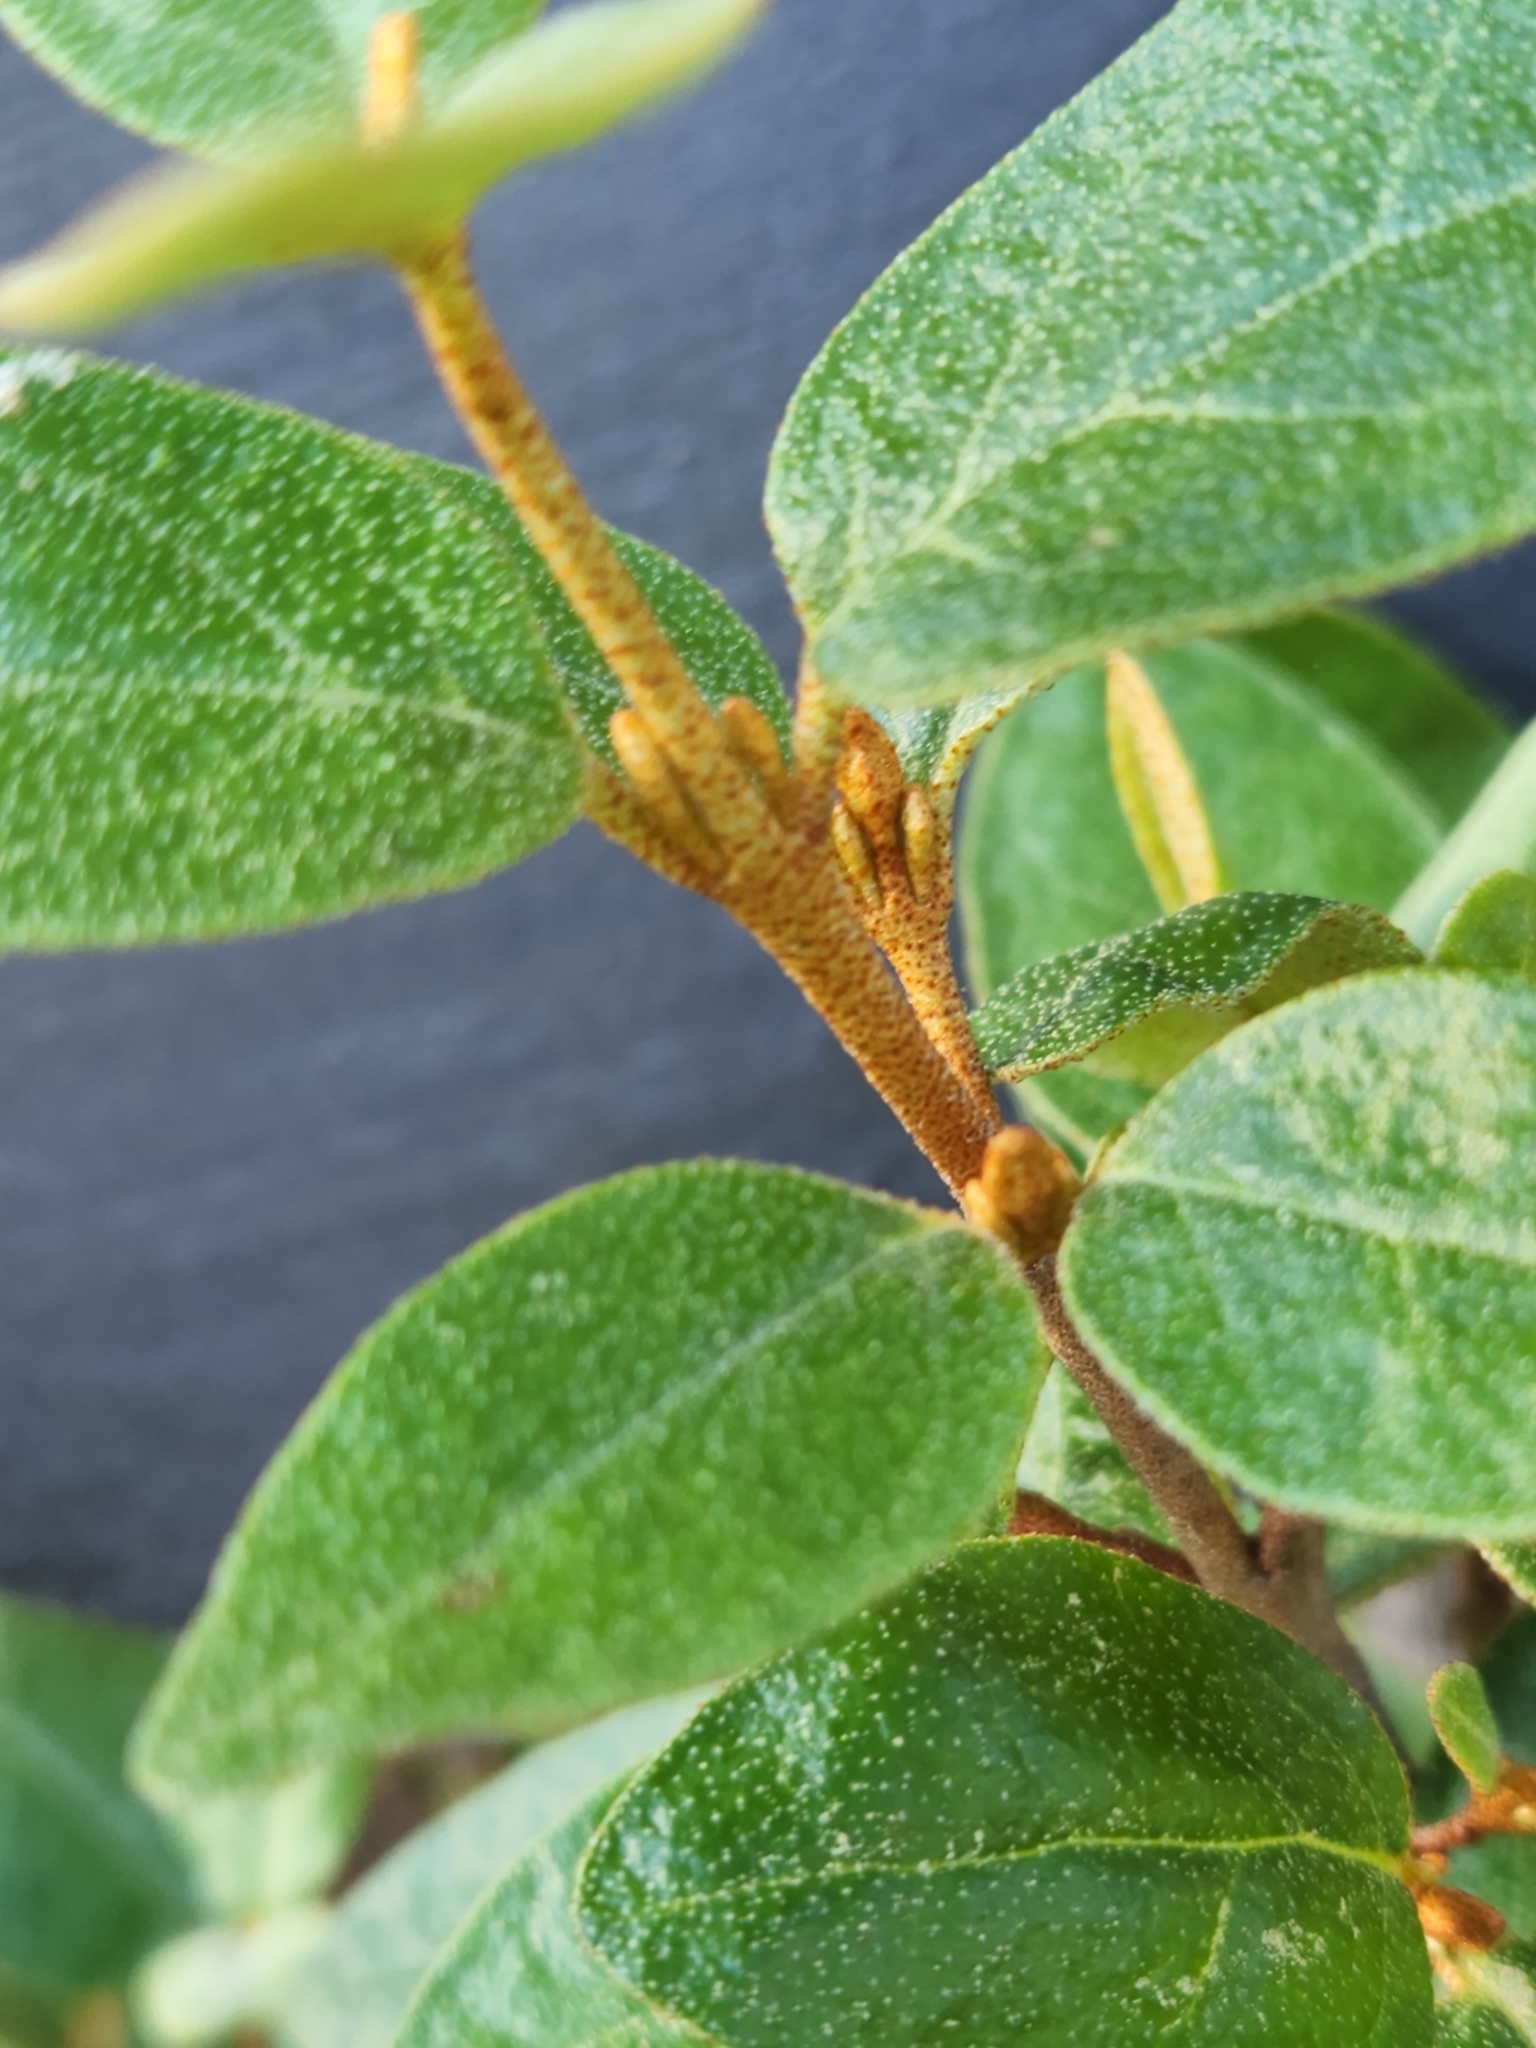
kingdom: Plantae
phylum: Tracheophyta
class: Magnoliopsida
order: Rosales
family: Elaeagnaceae
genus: Shepherdia
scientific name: Shepherdia canadensis
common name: Soapberry
